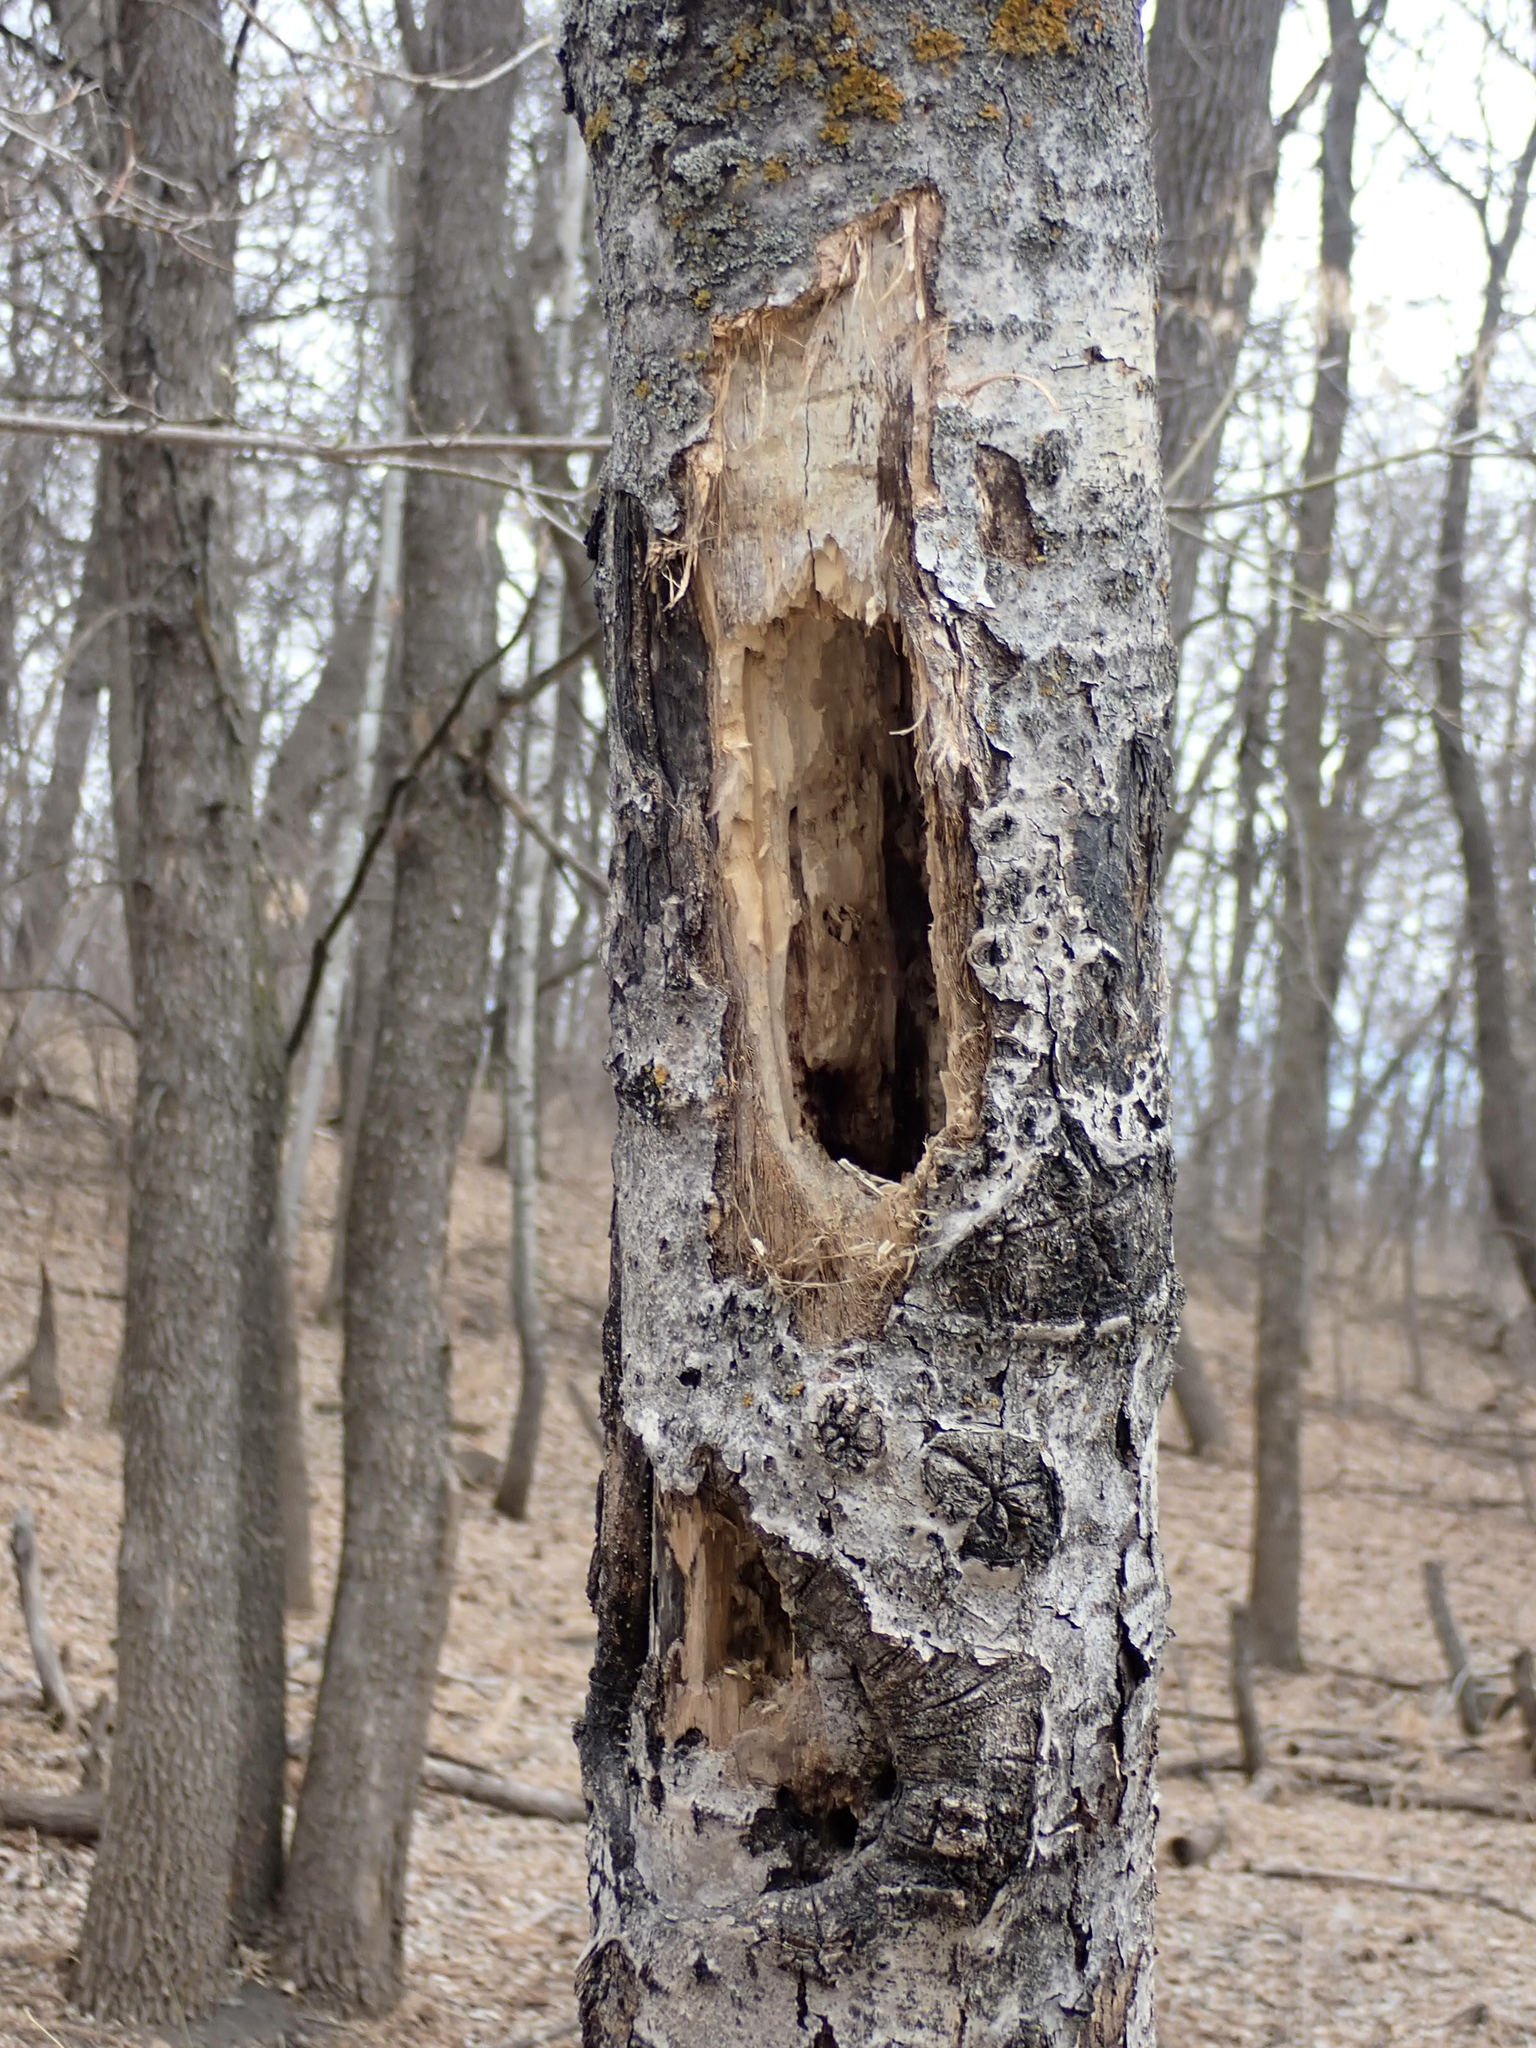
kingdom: Animalia
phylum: Chordata
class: Aves
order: Piciformes
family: Picidae
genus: Dryocopus
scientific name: Dryocopus pileatus
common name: Pileated woodpecker
